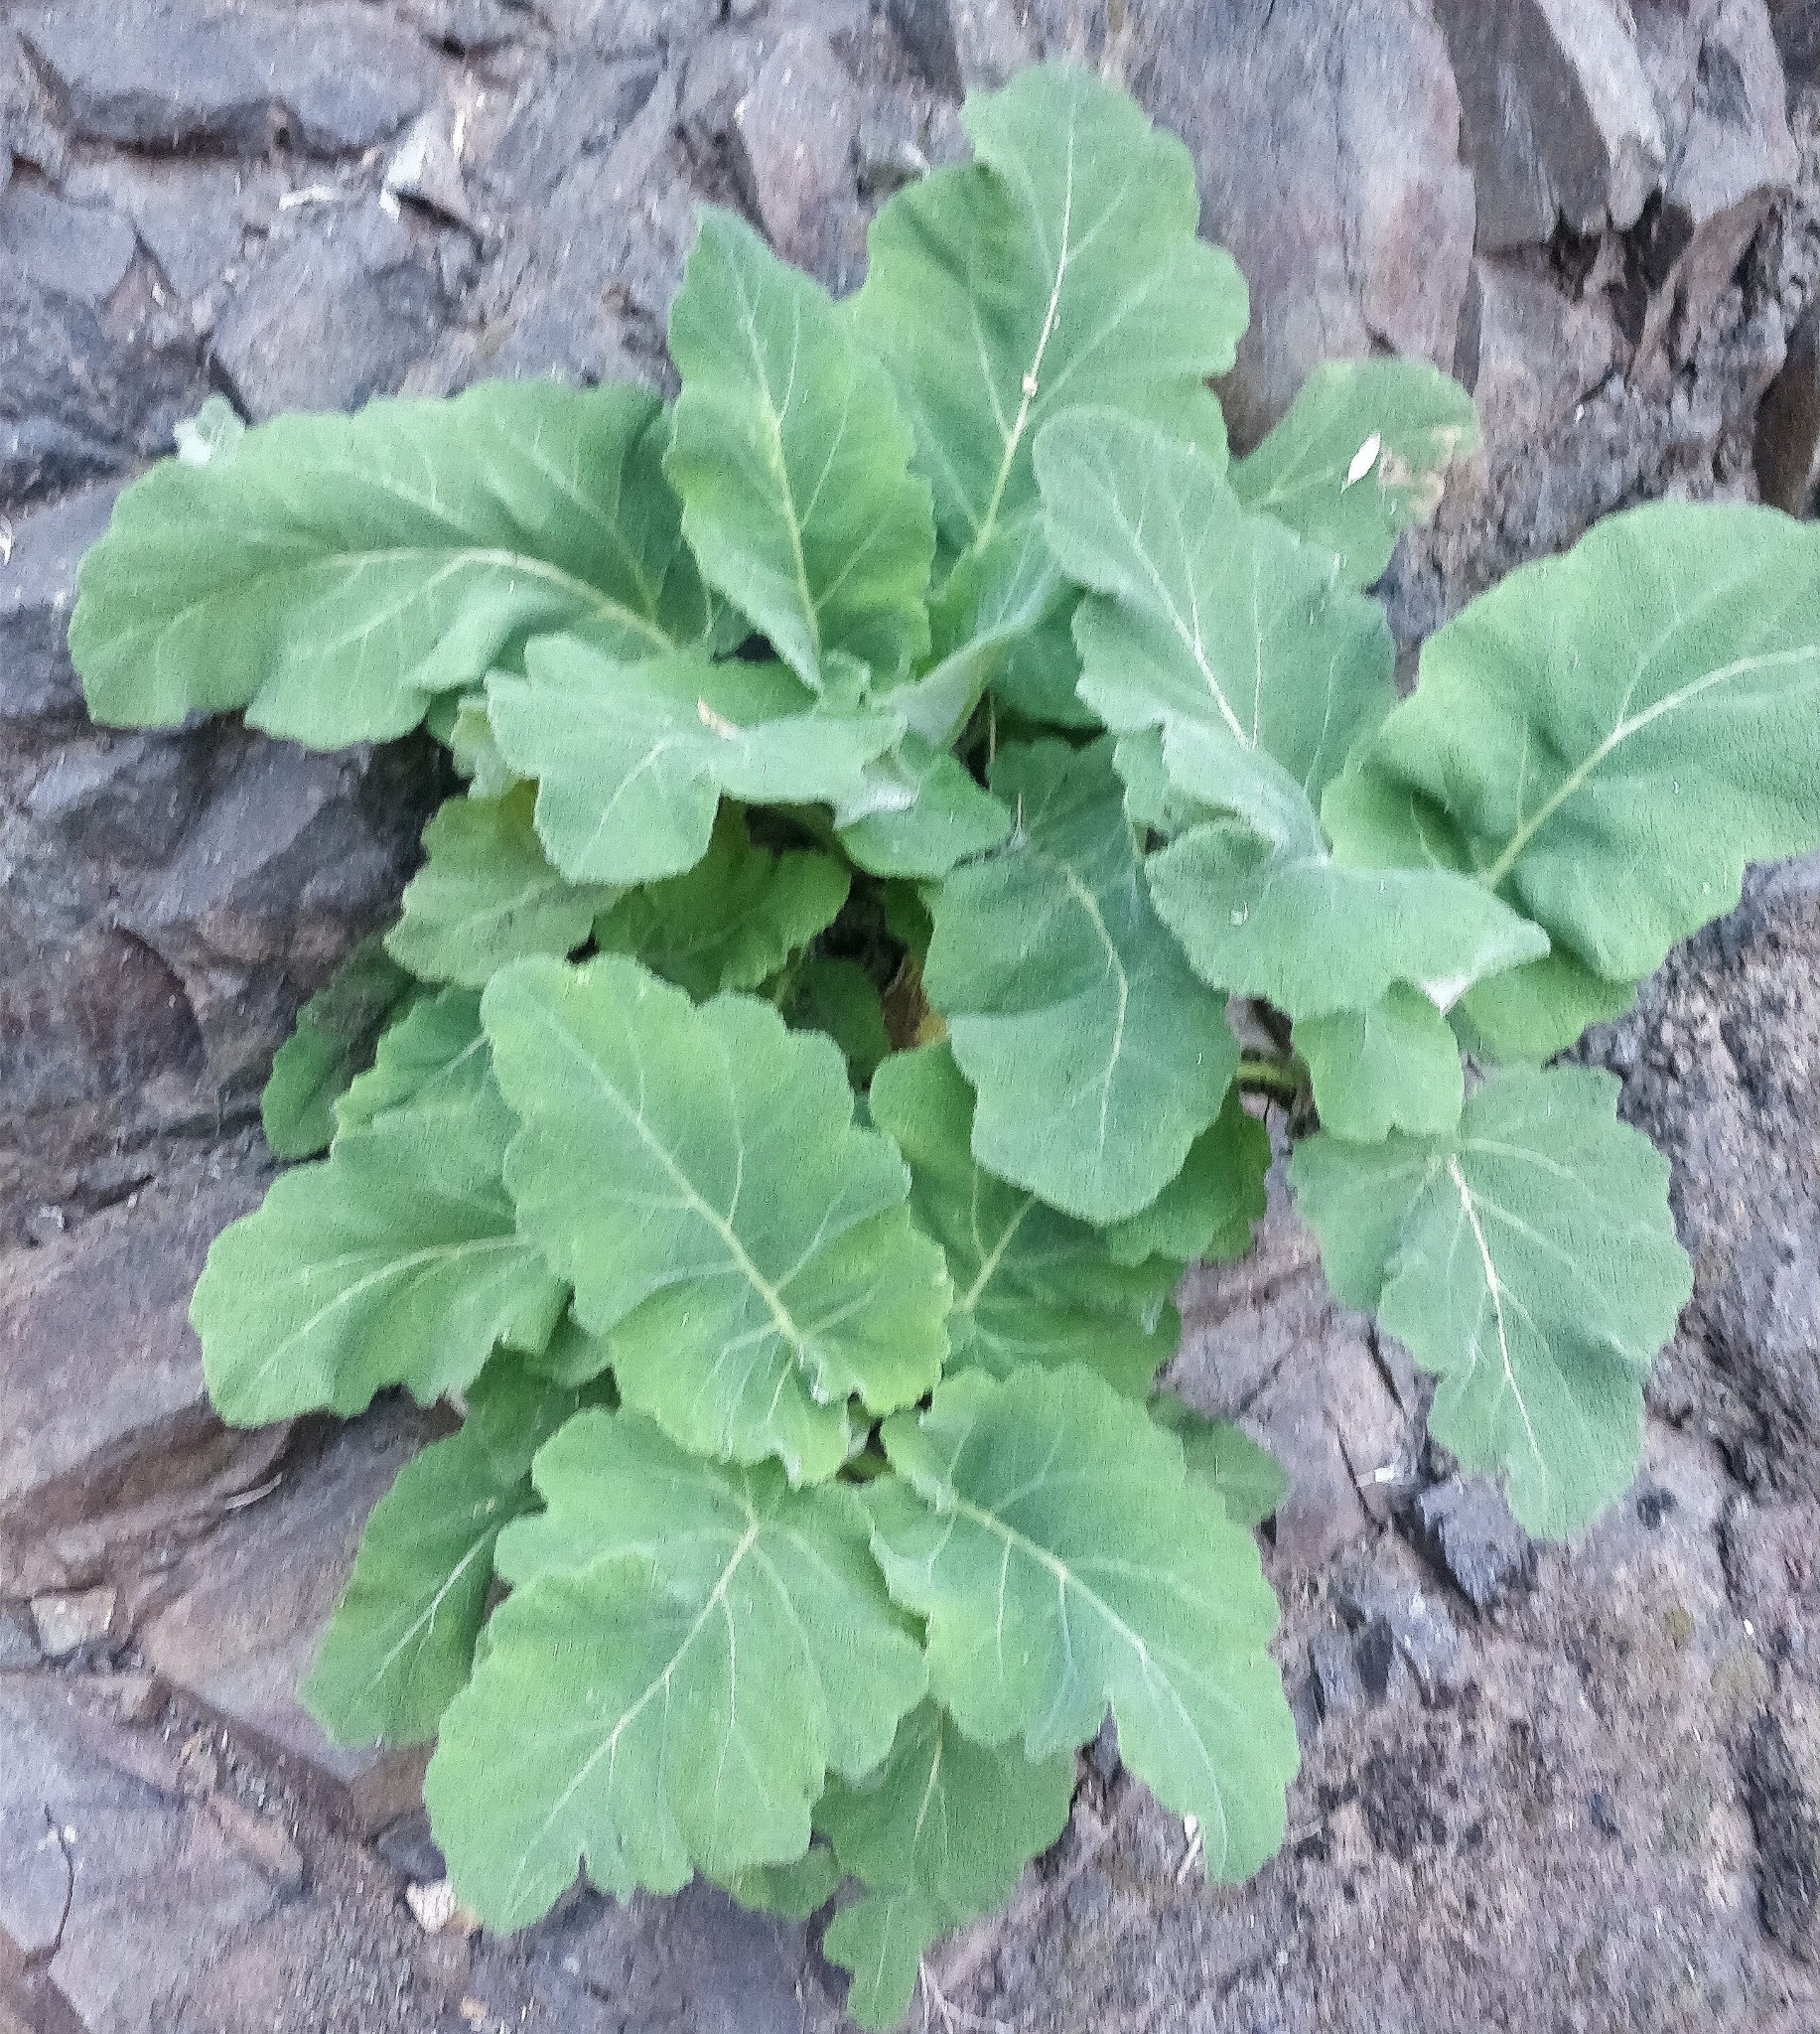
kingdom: Plantae
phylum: Tracheophyta
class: Magnoliopsida
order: Lamiales
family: Lamiaceae
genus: Salvia
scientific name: Salvia broussonetii
